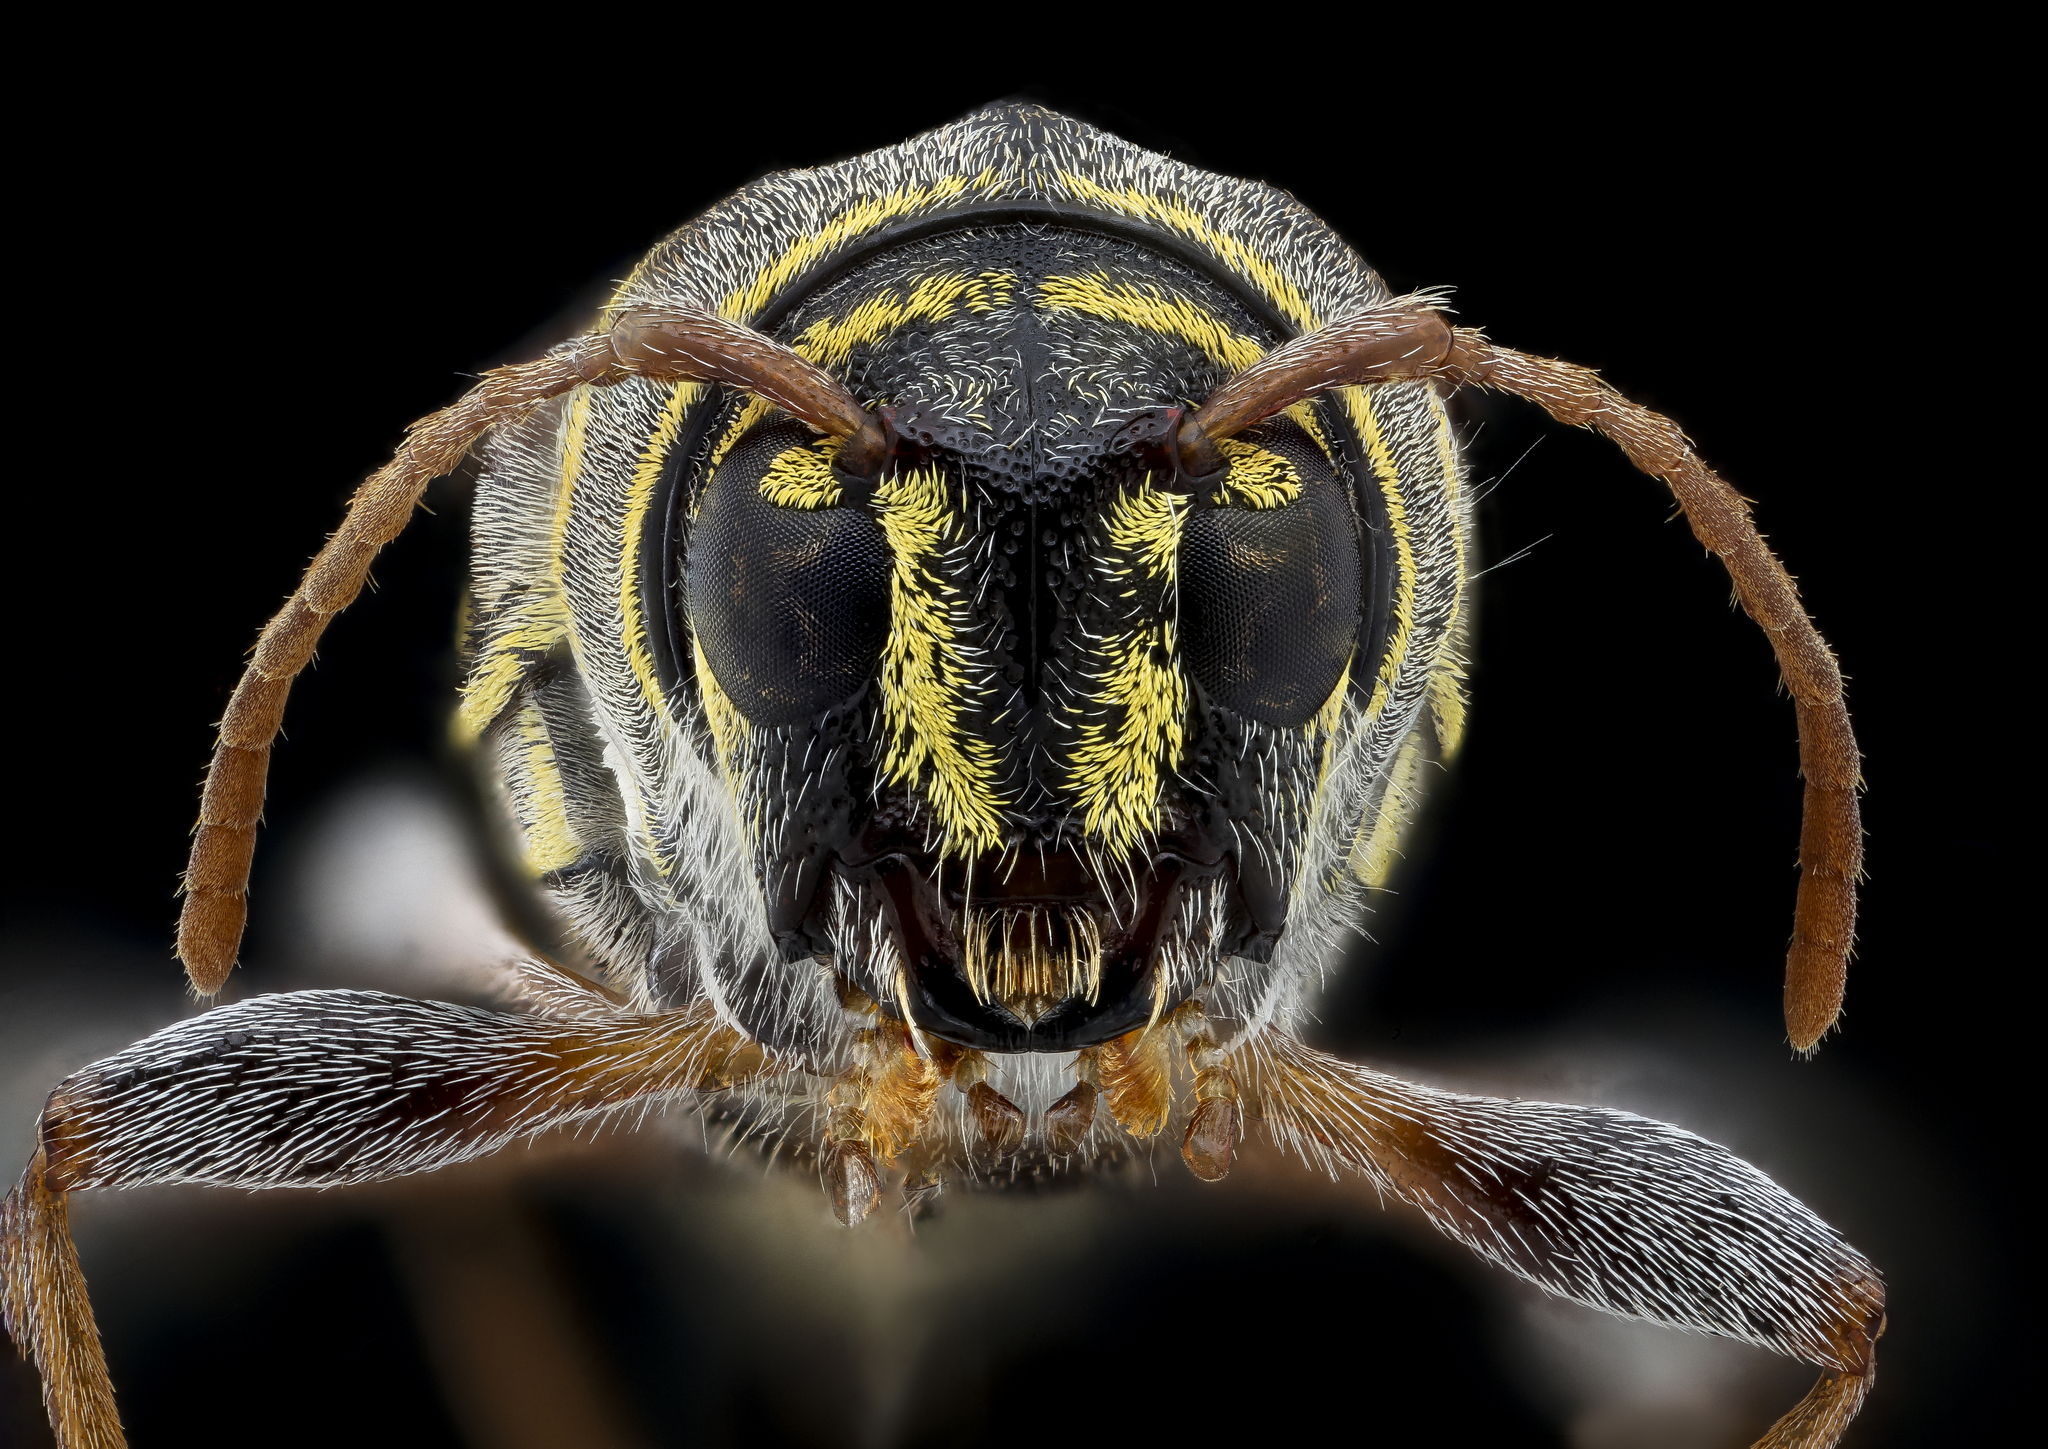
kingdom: Animalia
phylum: Arthropoda
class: Insecta
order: Coleoptera
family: Cerambycidae
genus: Neoclytus
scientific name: Neoclytus scutellaris
